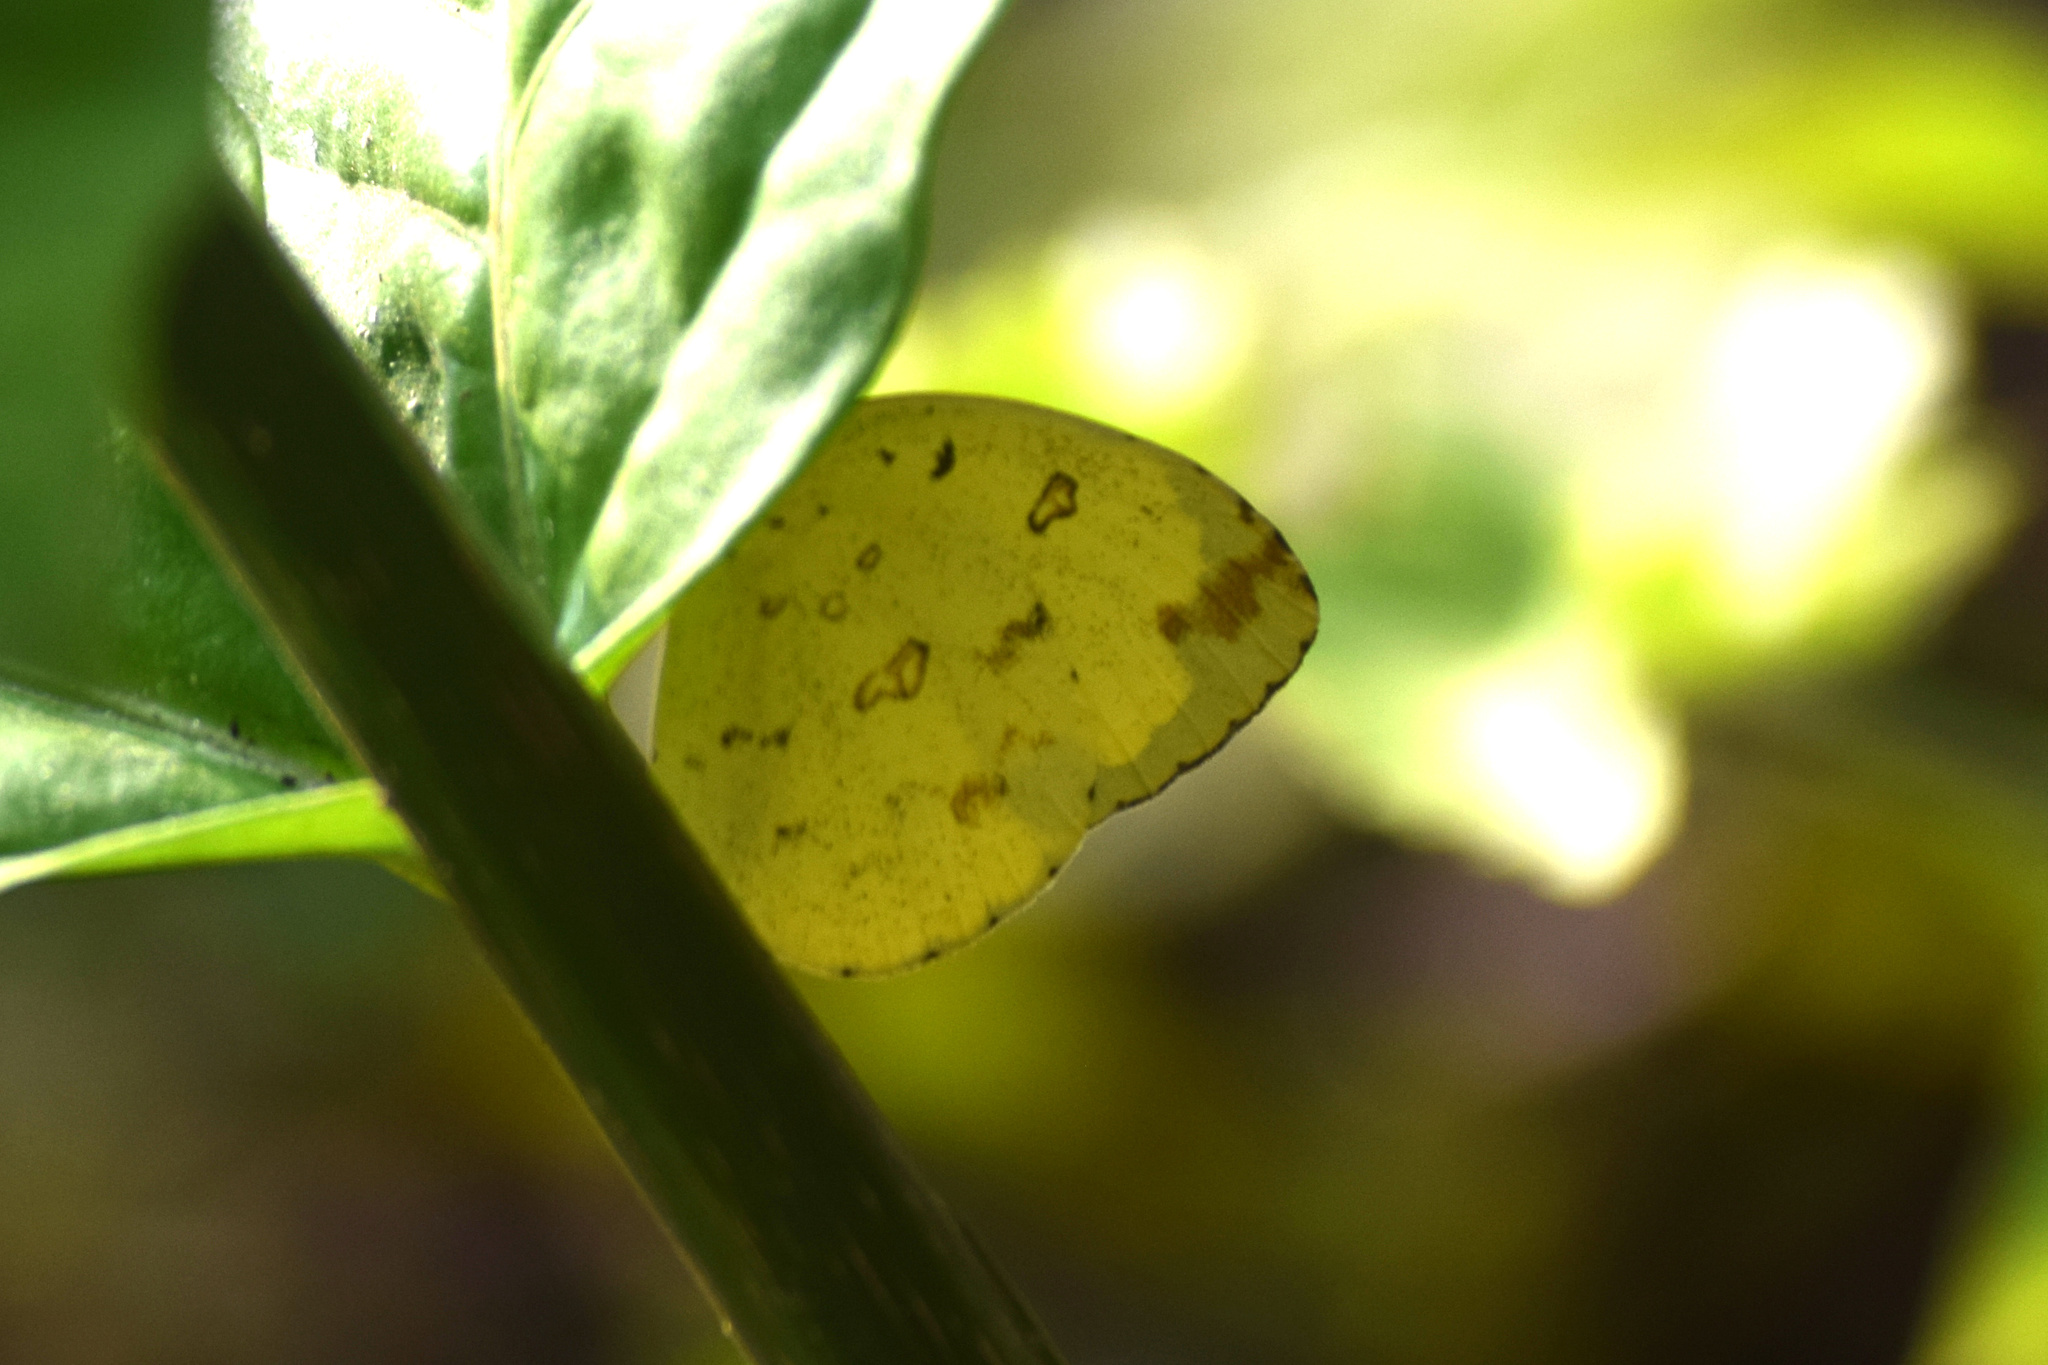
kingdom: Animalia
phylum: Arthropoda
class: Insecta
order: Lepidoptera
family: Pieridae
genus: Eurema
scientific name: Eurema hecabe
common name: Pale grass yellow
